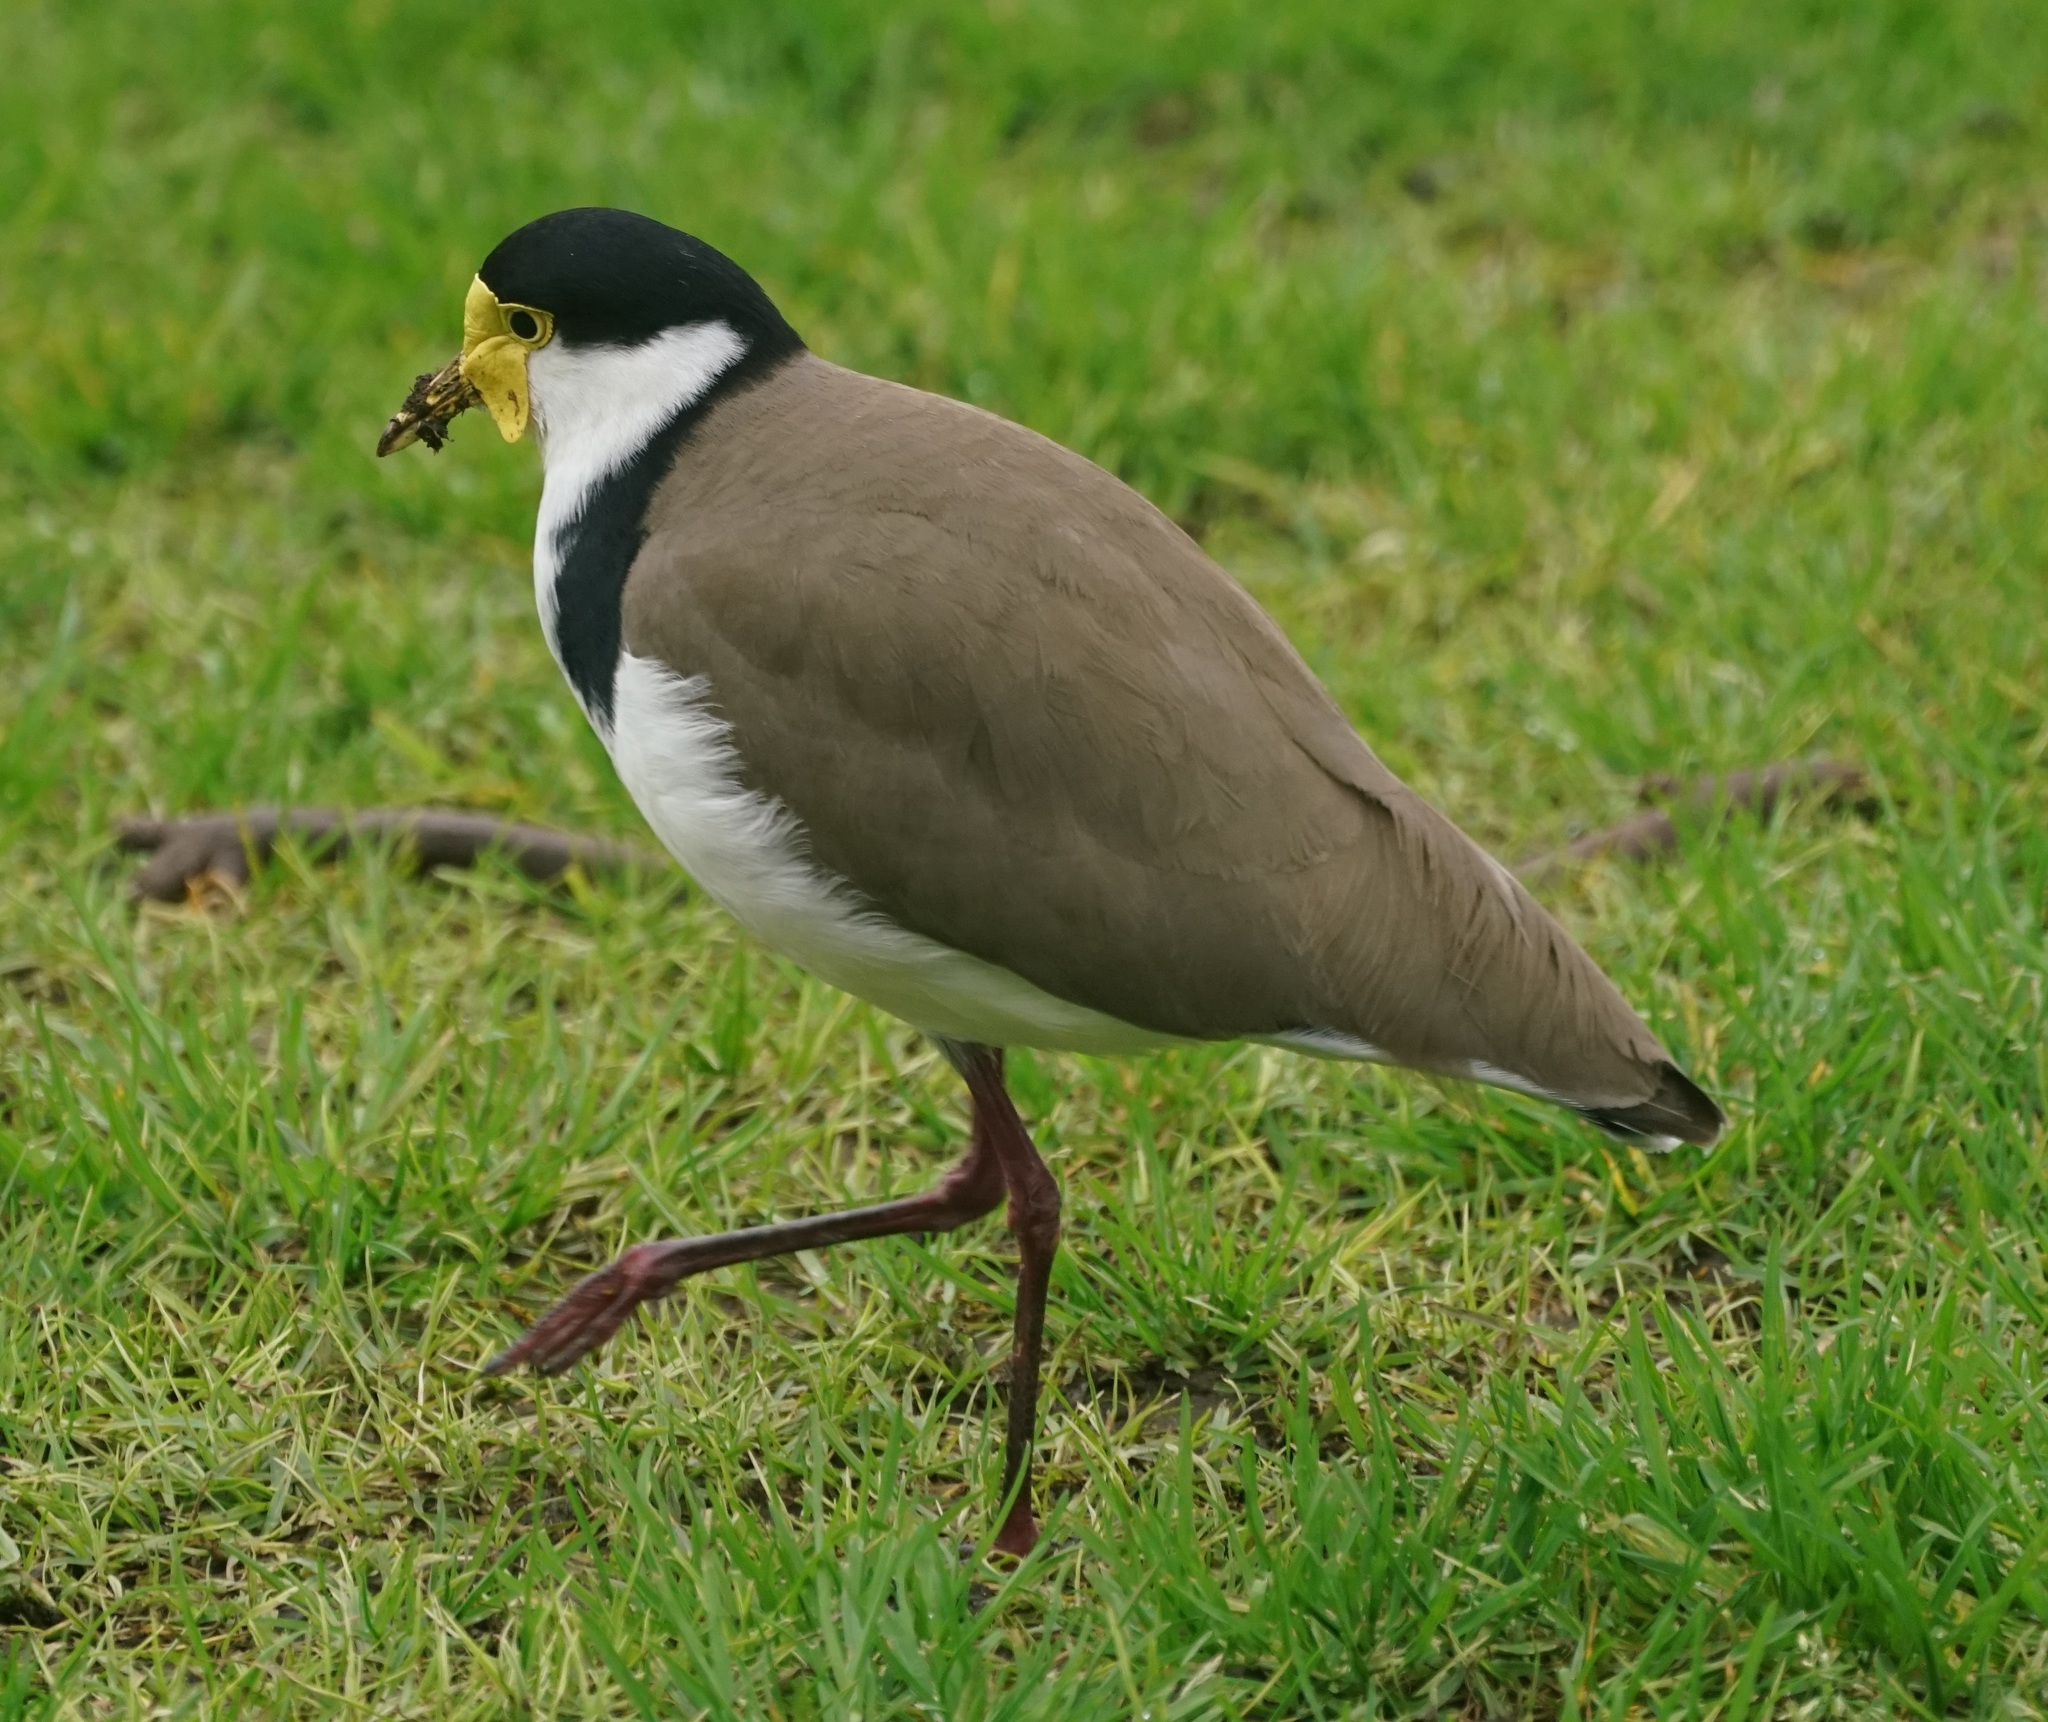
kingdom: Animalia
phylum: Chordata
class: Aves
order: Charadriiformes
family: Charadriidae
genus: Vanellus
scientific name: Vanellus miles
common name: Masked lapwing
